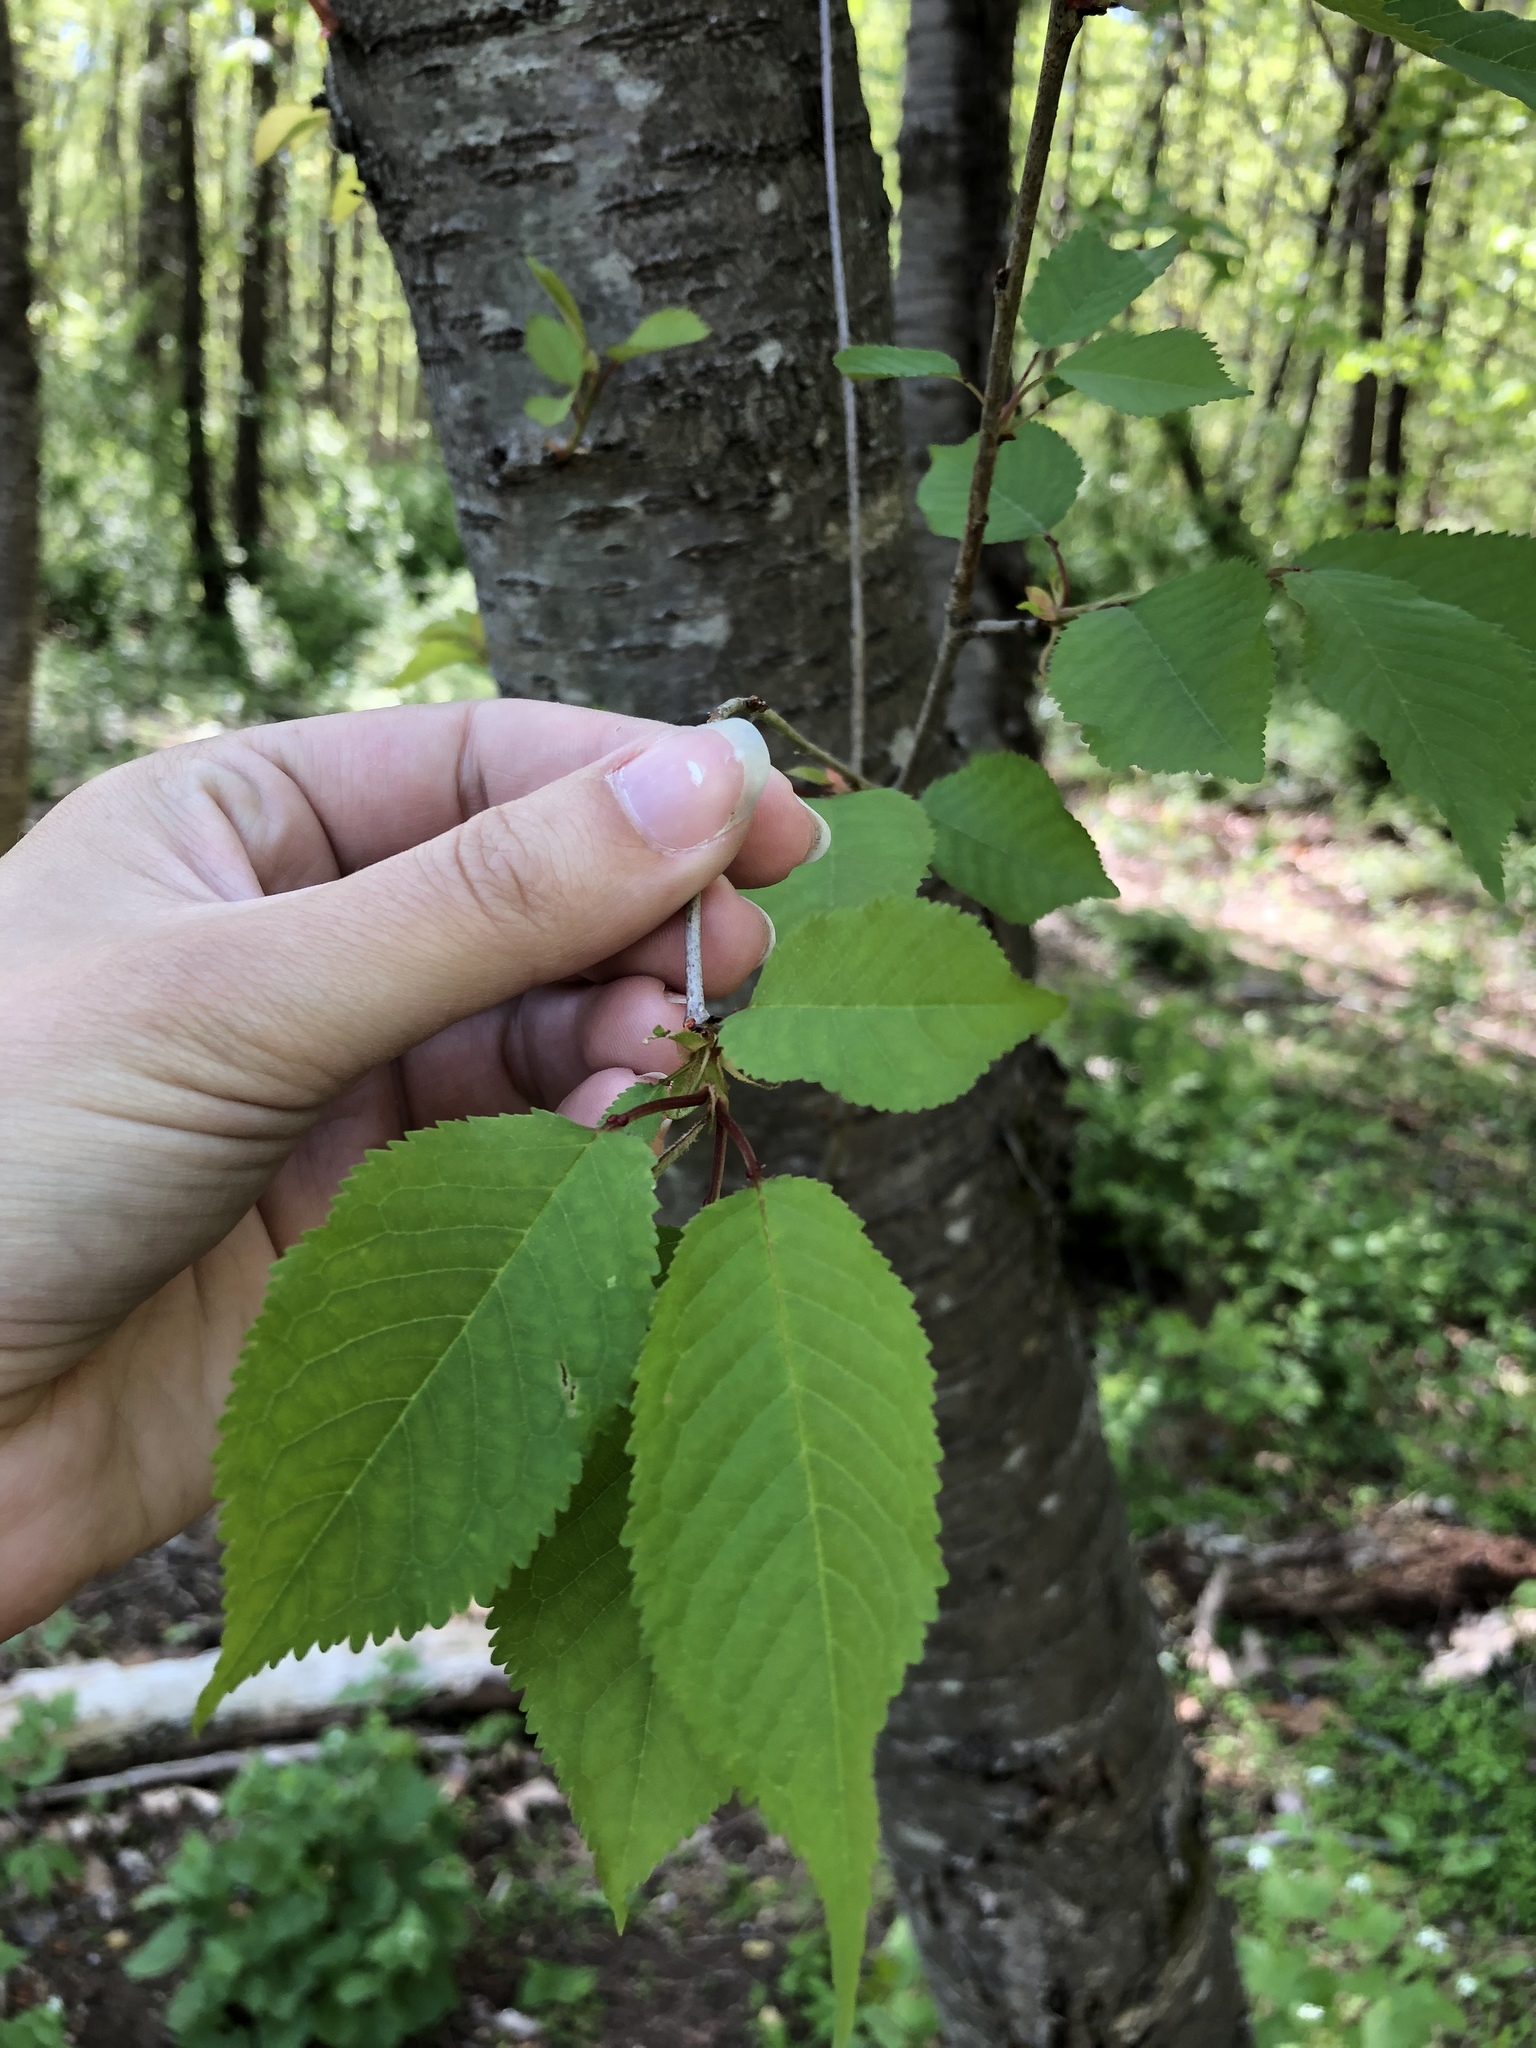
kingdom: Plantae
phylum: Tracheophyta
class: Magnoliopsida
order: Rosales
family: Rosaceae
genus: Prunus
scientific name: Prunus avium
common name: Sweet cherry
